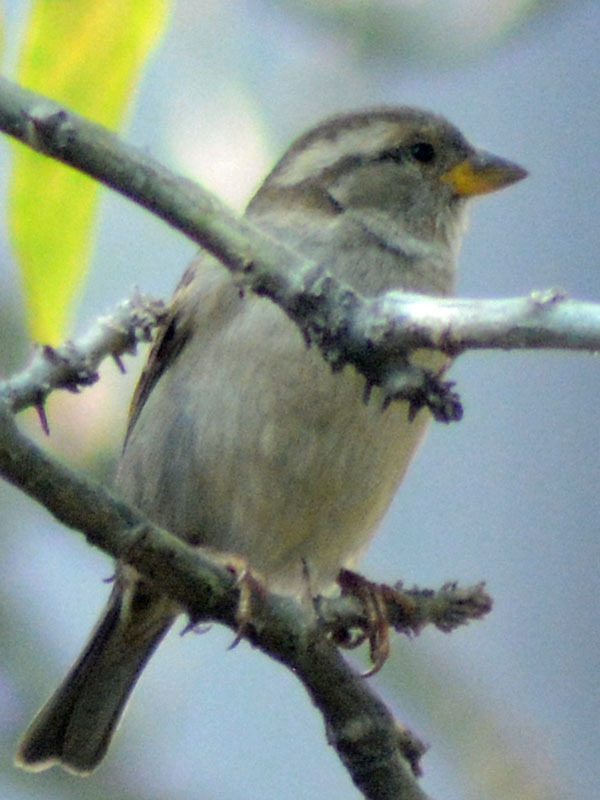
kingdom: Animalia
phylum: Chordata
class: Aves
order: Passeriformes
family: Passeridae
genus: Passer
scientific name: Passer domesticus
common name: House sparrow
